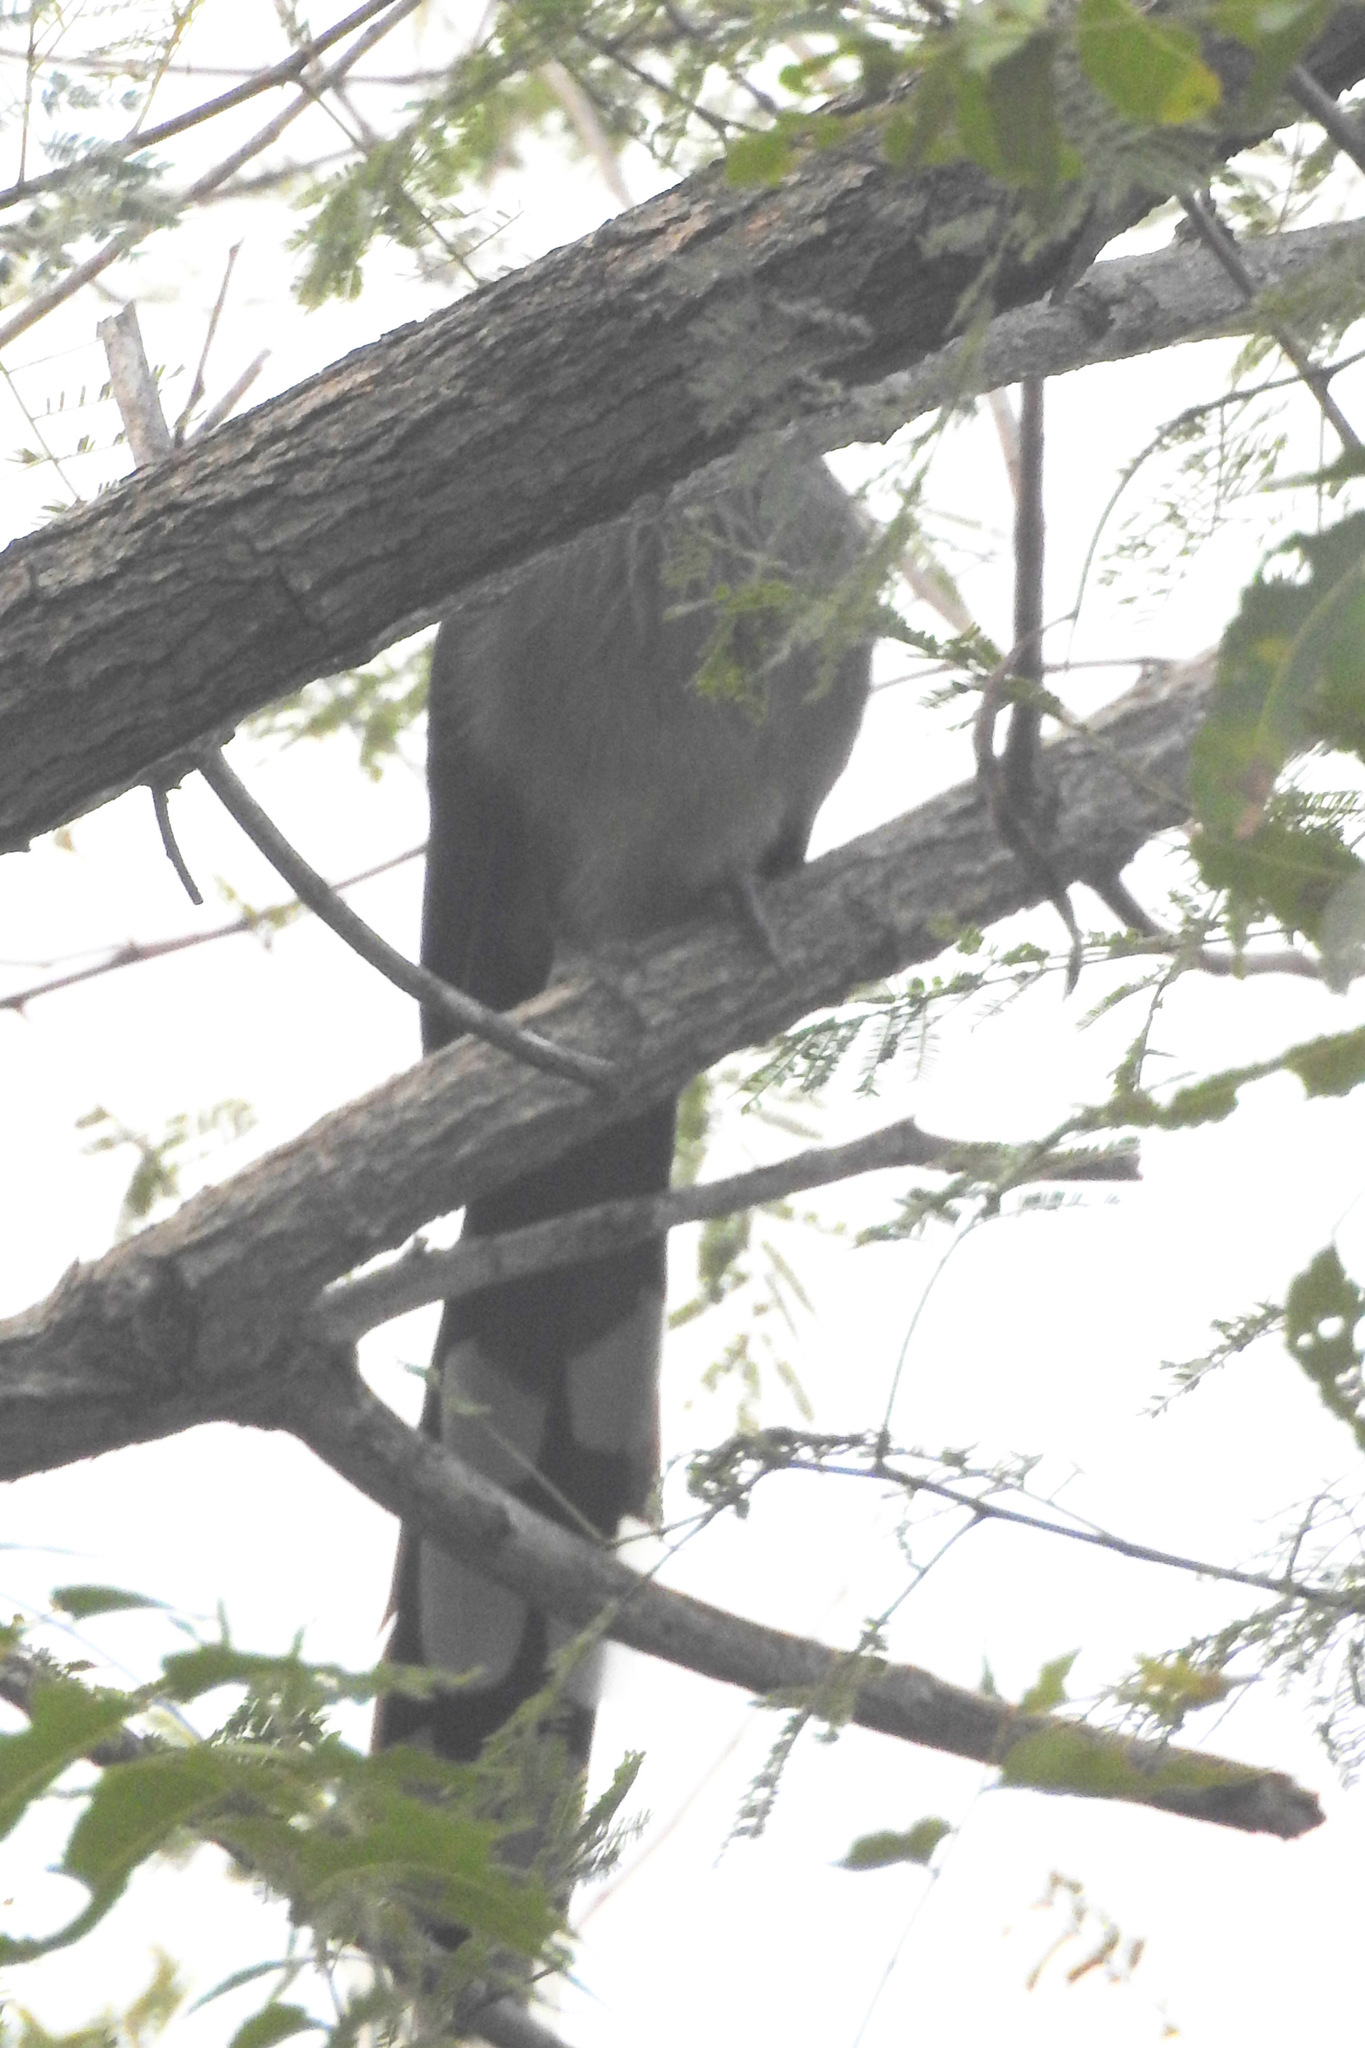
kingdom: Animalia
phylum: Chordata
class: Aves
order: Cuculiformes
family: Cuculidae
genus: Rhopodytes
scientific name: Rhopodytes viridirostris
